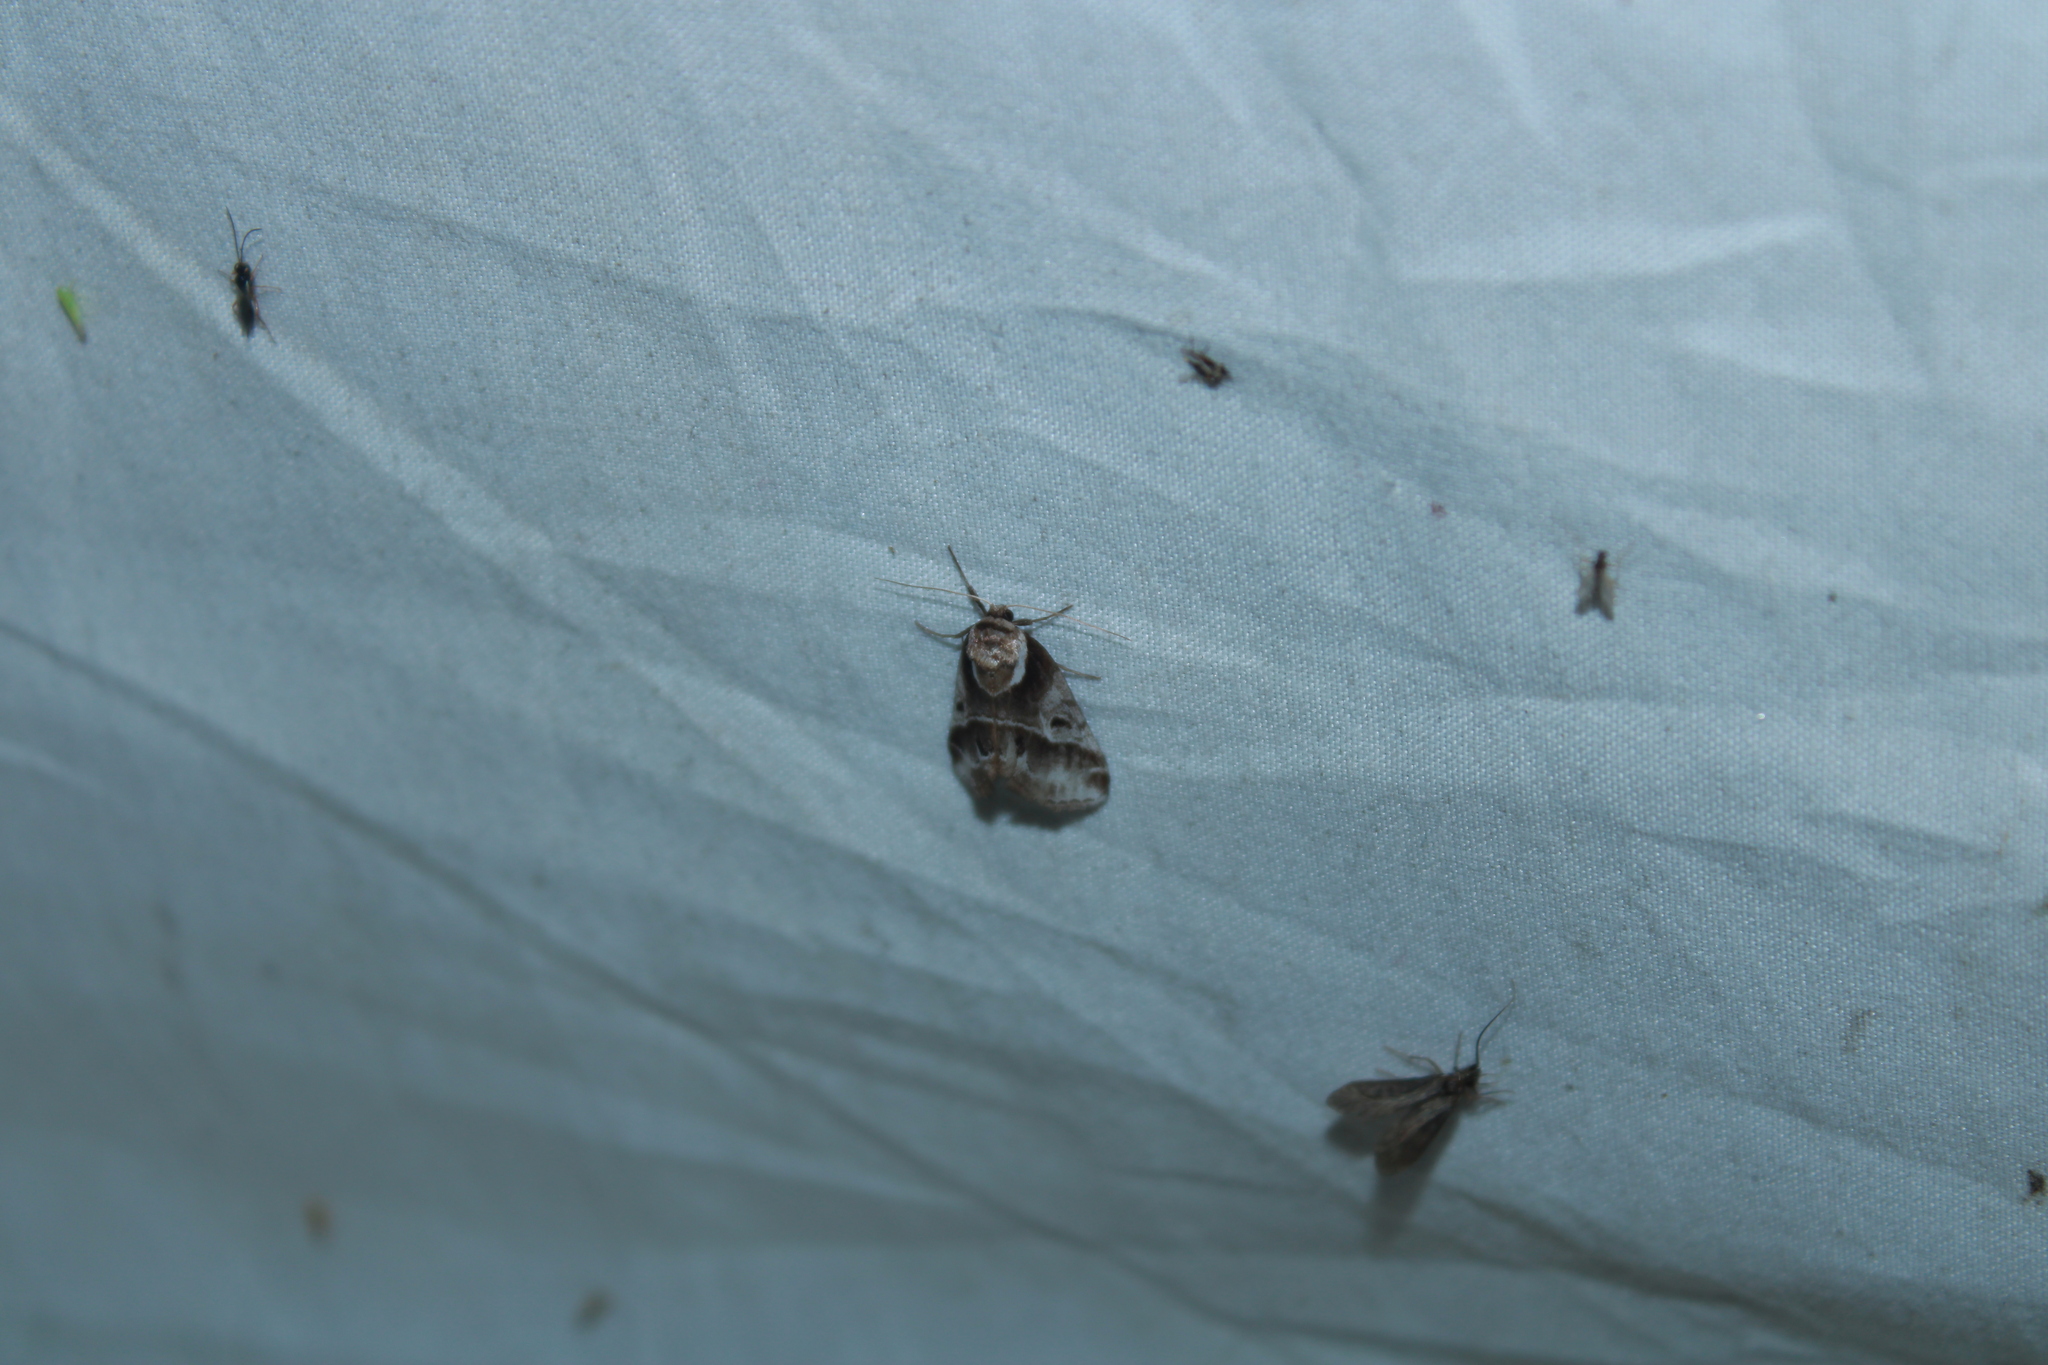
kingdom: Animalia
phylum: Arthropoda
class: Insecta
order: Lepidoptera
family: Nolidae
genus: Baileya
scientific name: Baileya doubledayi
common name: Doubleday's baileya moth
